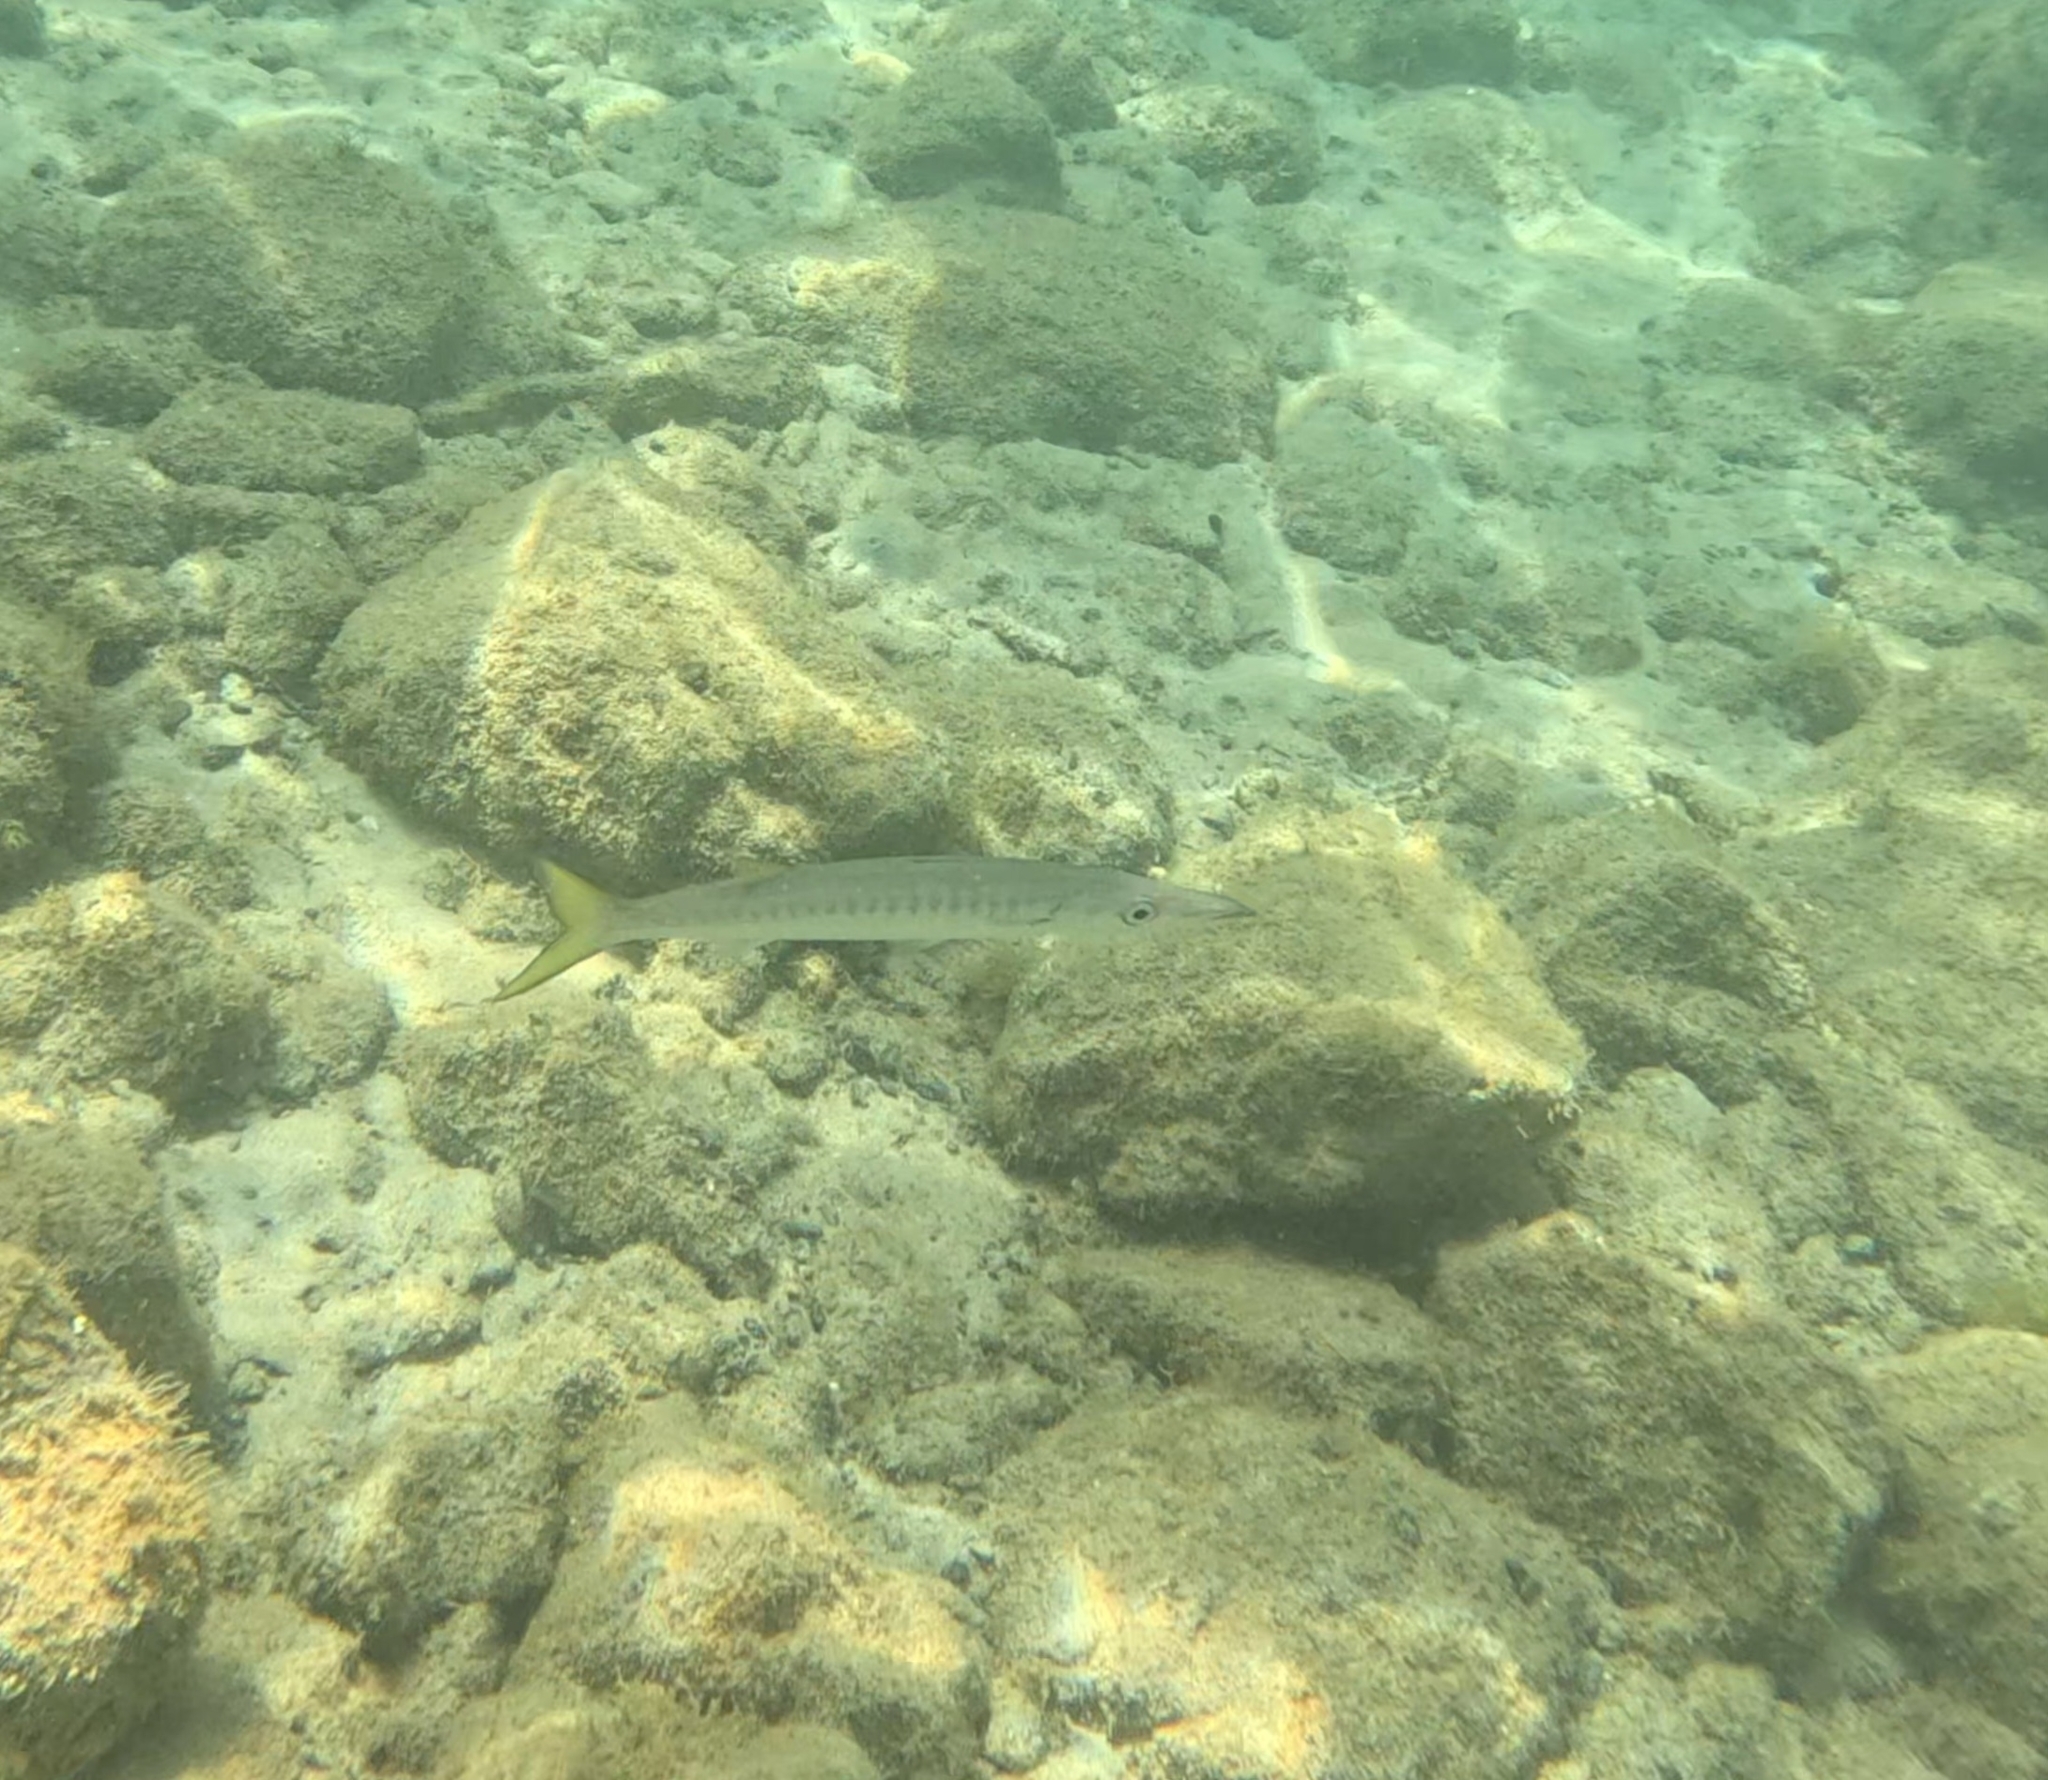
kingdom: Animalia
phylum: Chordata
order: Perciformes
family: Sphyraenidae
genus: Sphyraena
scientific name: Sphyraena viridensis
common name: Yellowmouth barracuda
